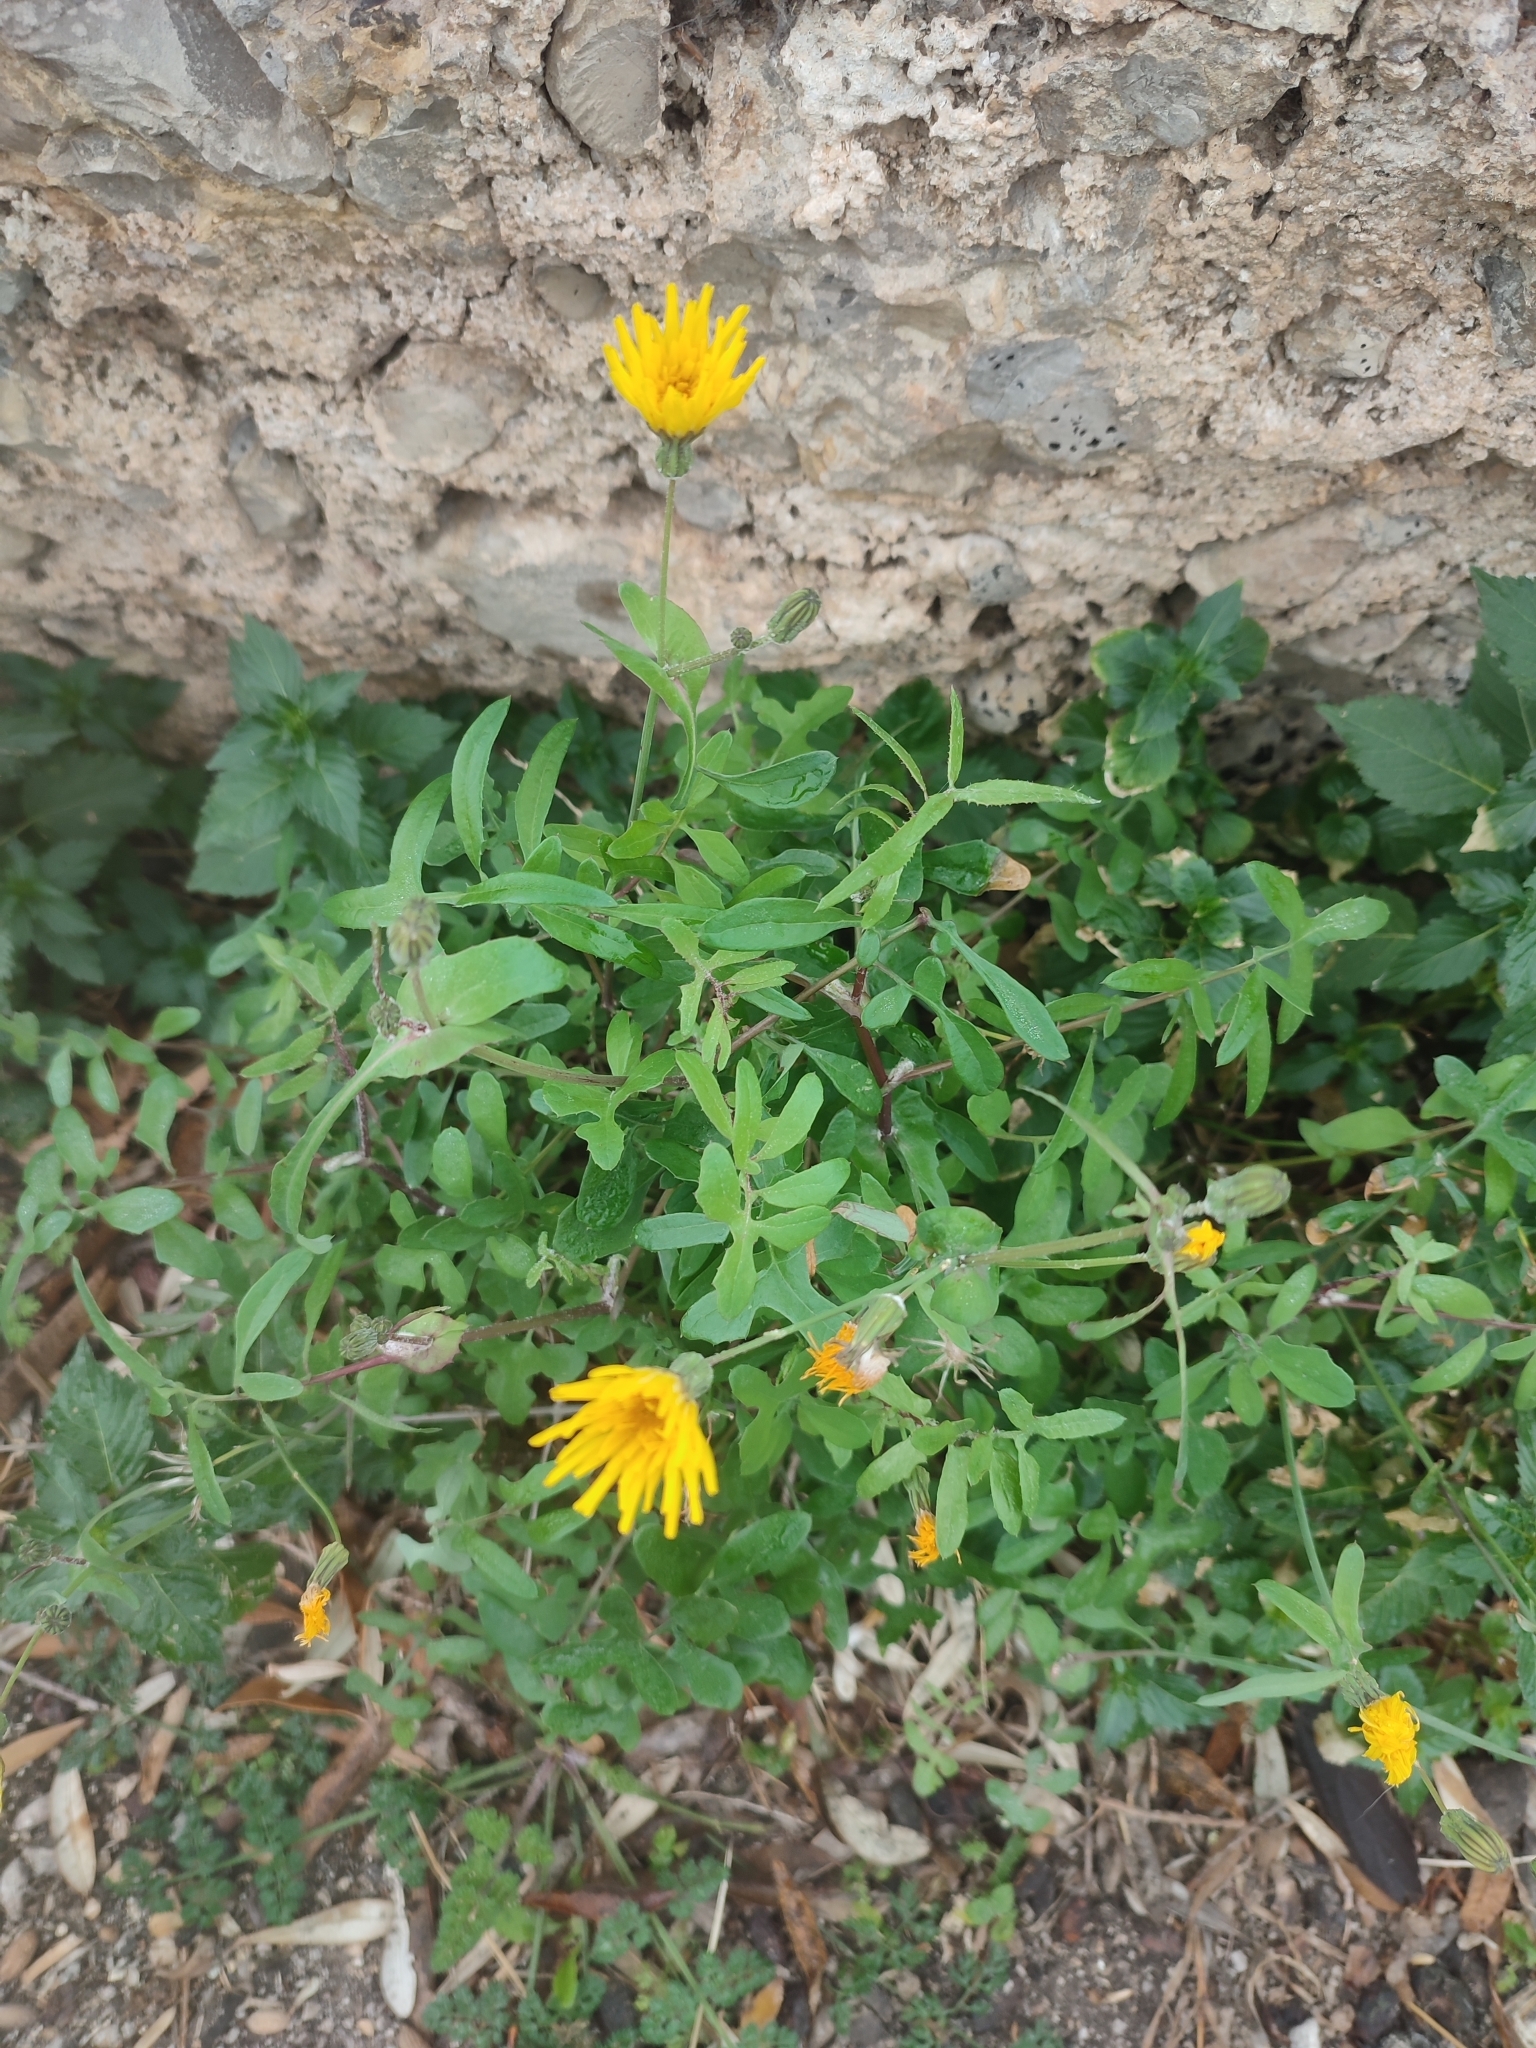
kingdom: Plantae
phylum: Tracheophyta
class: Magnoliopsida
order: Asterales
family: Asteraceae
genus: Sonchus
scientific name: Sonchus tenerrimus
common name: Clammy sowthistle
